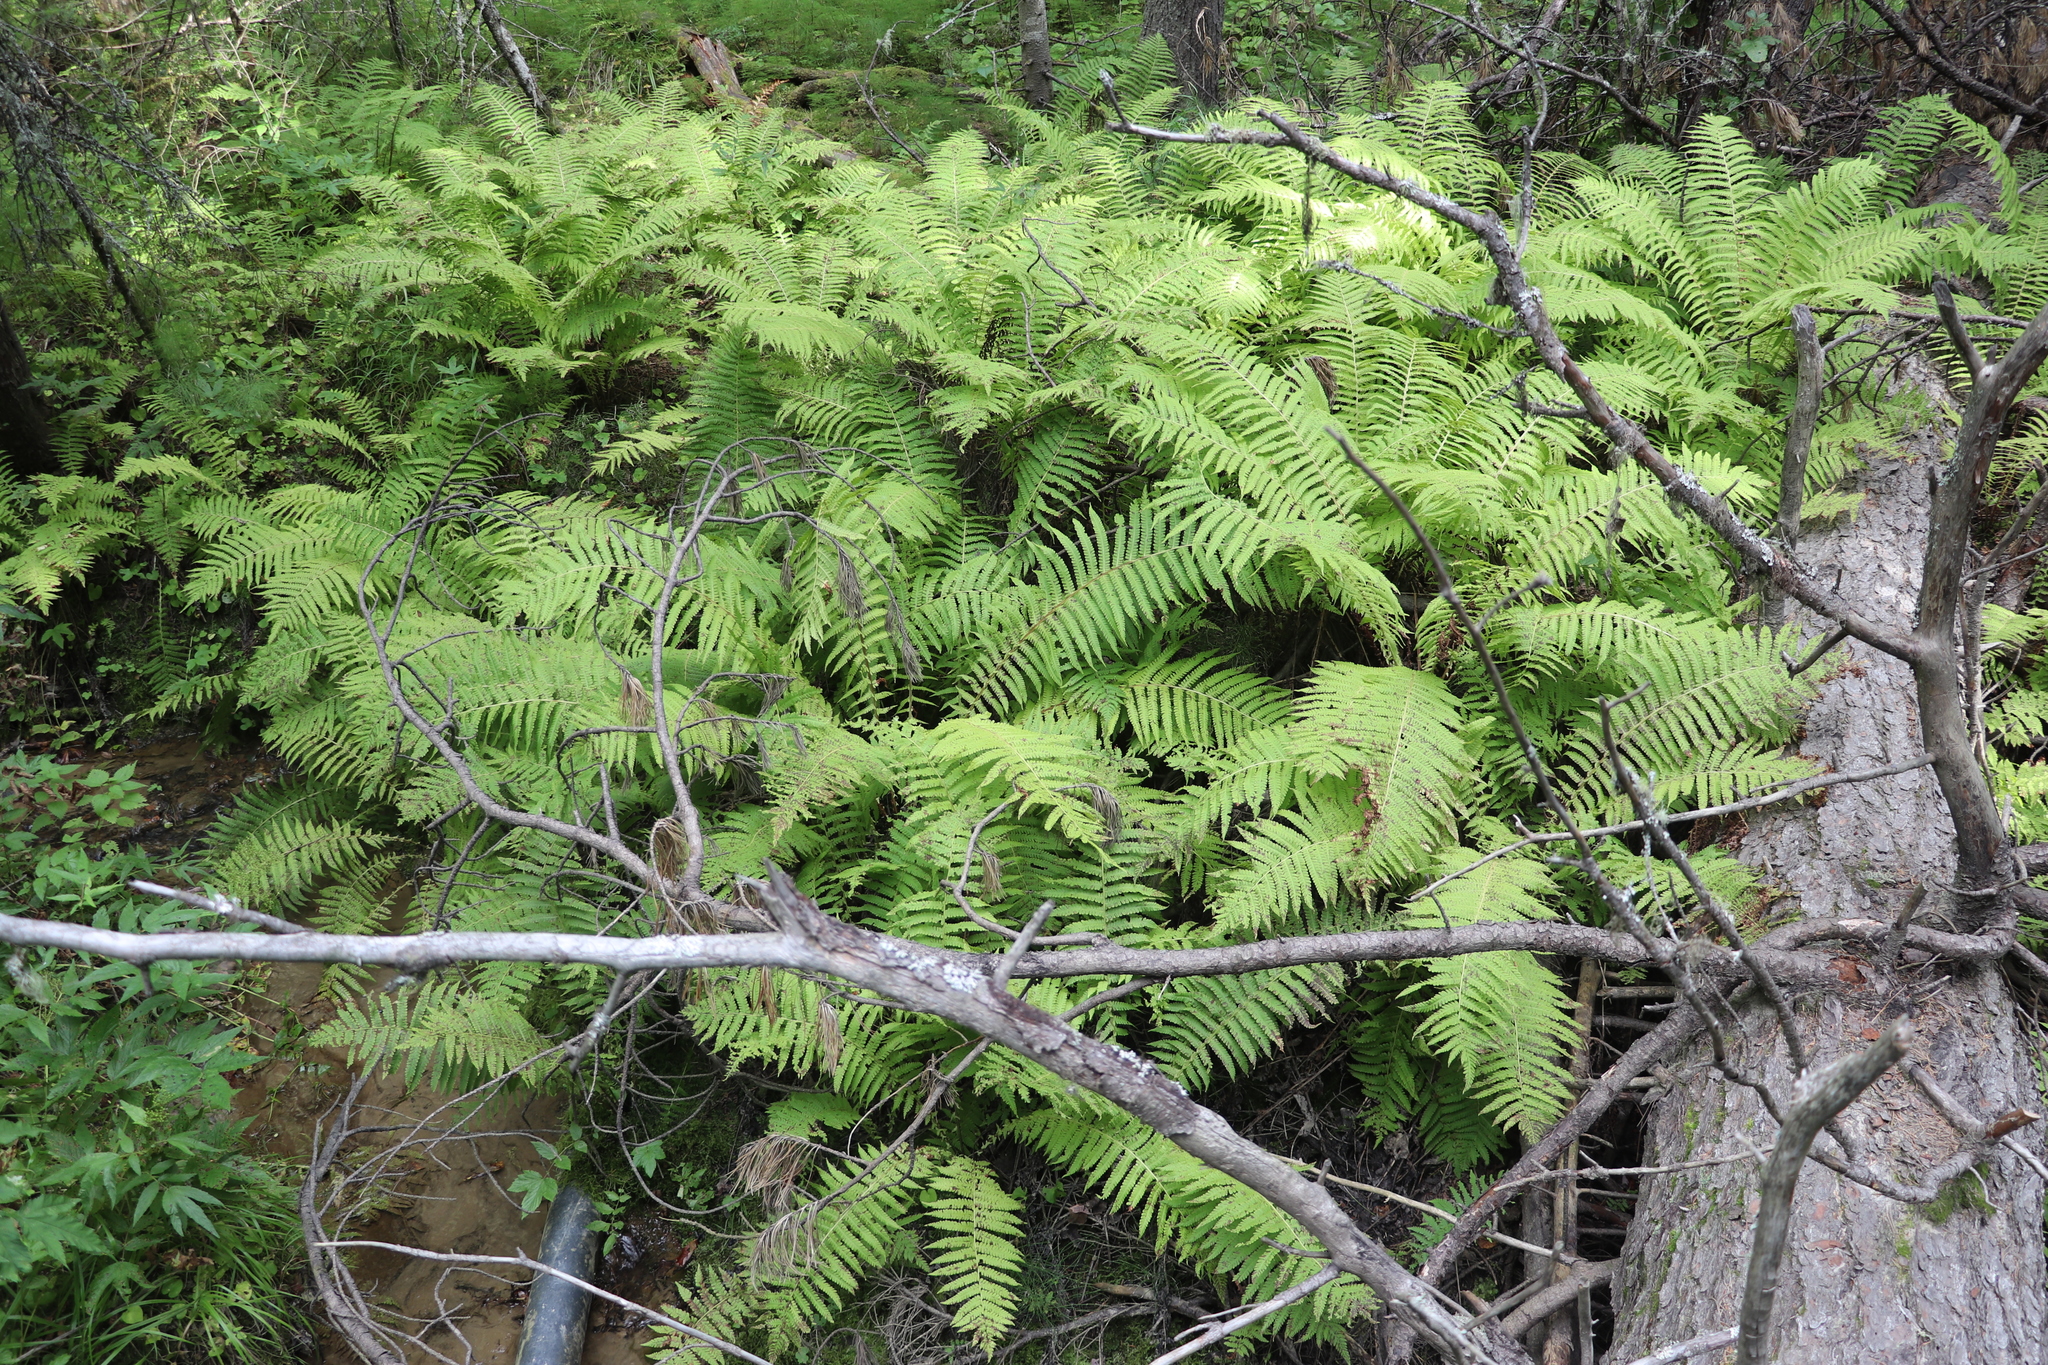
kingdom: Plantae
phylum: Tracheophyta
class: Polypodiopsida
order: Polypodiales
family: Onocleaceae
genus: Matteuccia
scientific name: Matteuccia struthiopteris
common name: Ostrich fern
